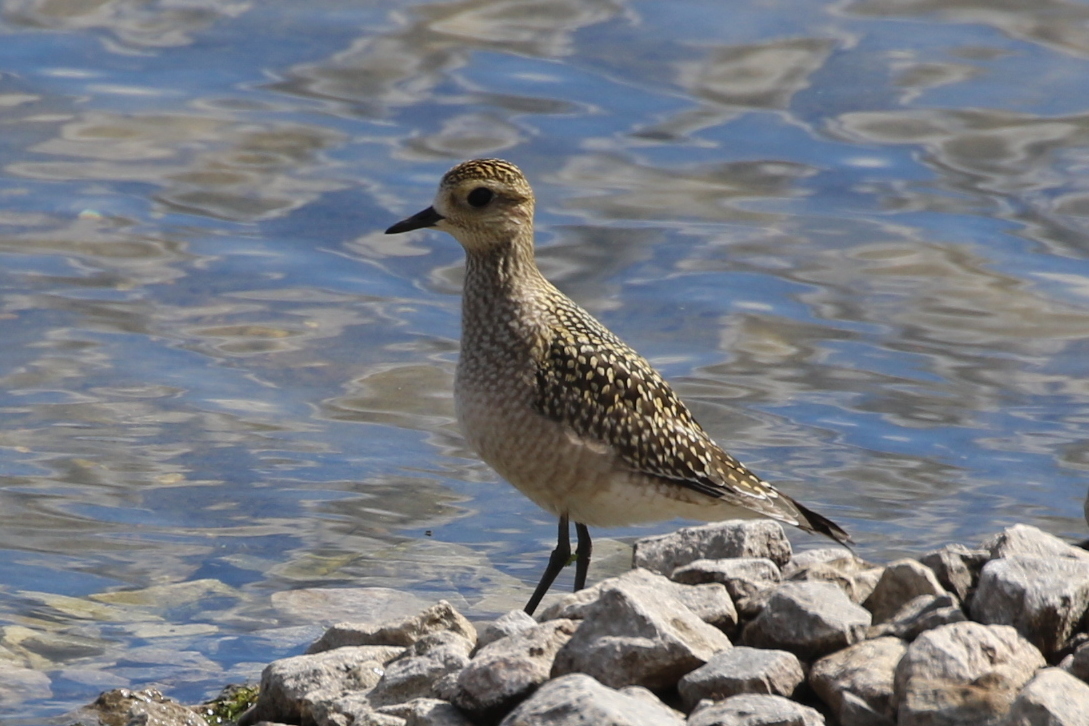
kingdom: Animalia
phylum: Chordata
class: Aves
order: Charadriiformes
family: Charadriidae
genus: Pluvialis
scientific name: Pluvialis dominica
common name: American golden plover
